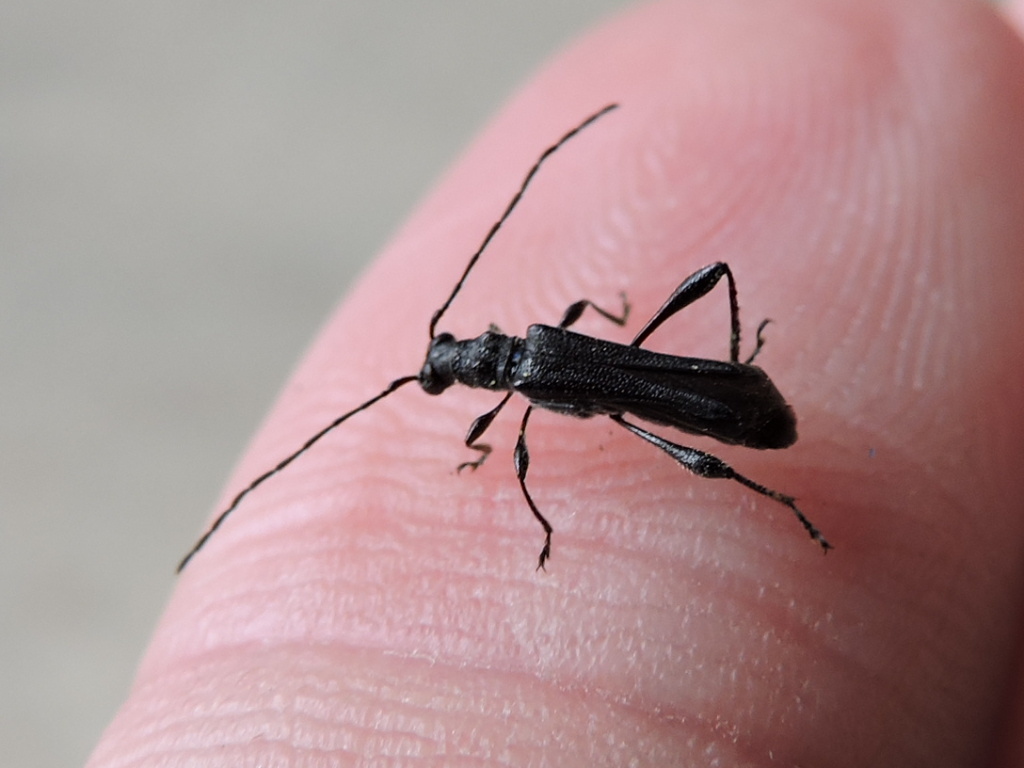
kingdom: Animalia
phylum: Arthropoda
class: Insecta
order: Coleoptera
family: Cerambycidae
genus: Callimoxys
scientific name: Callimoxys nigrinus
